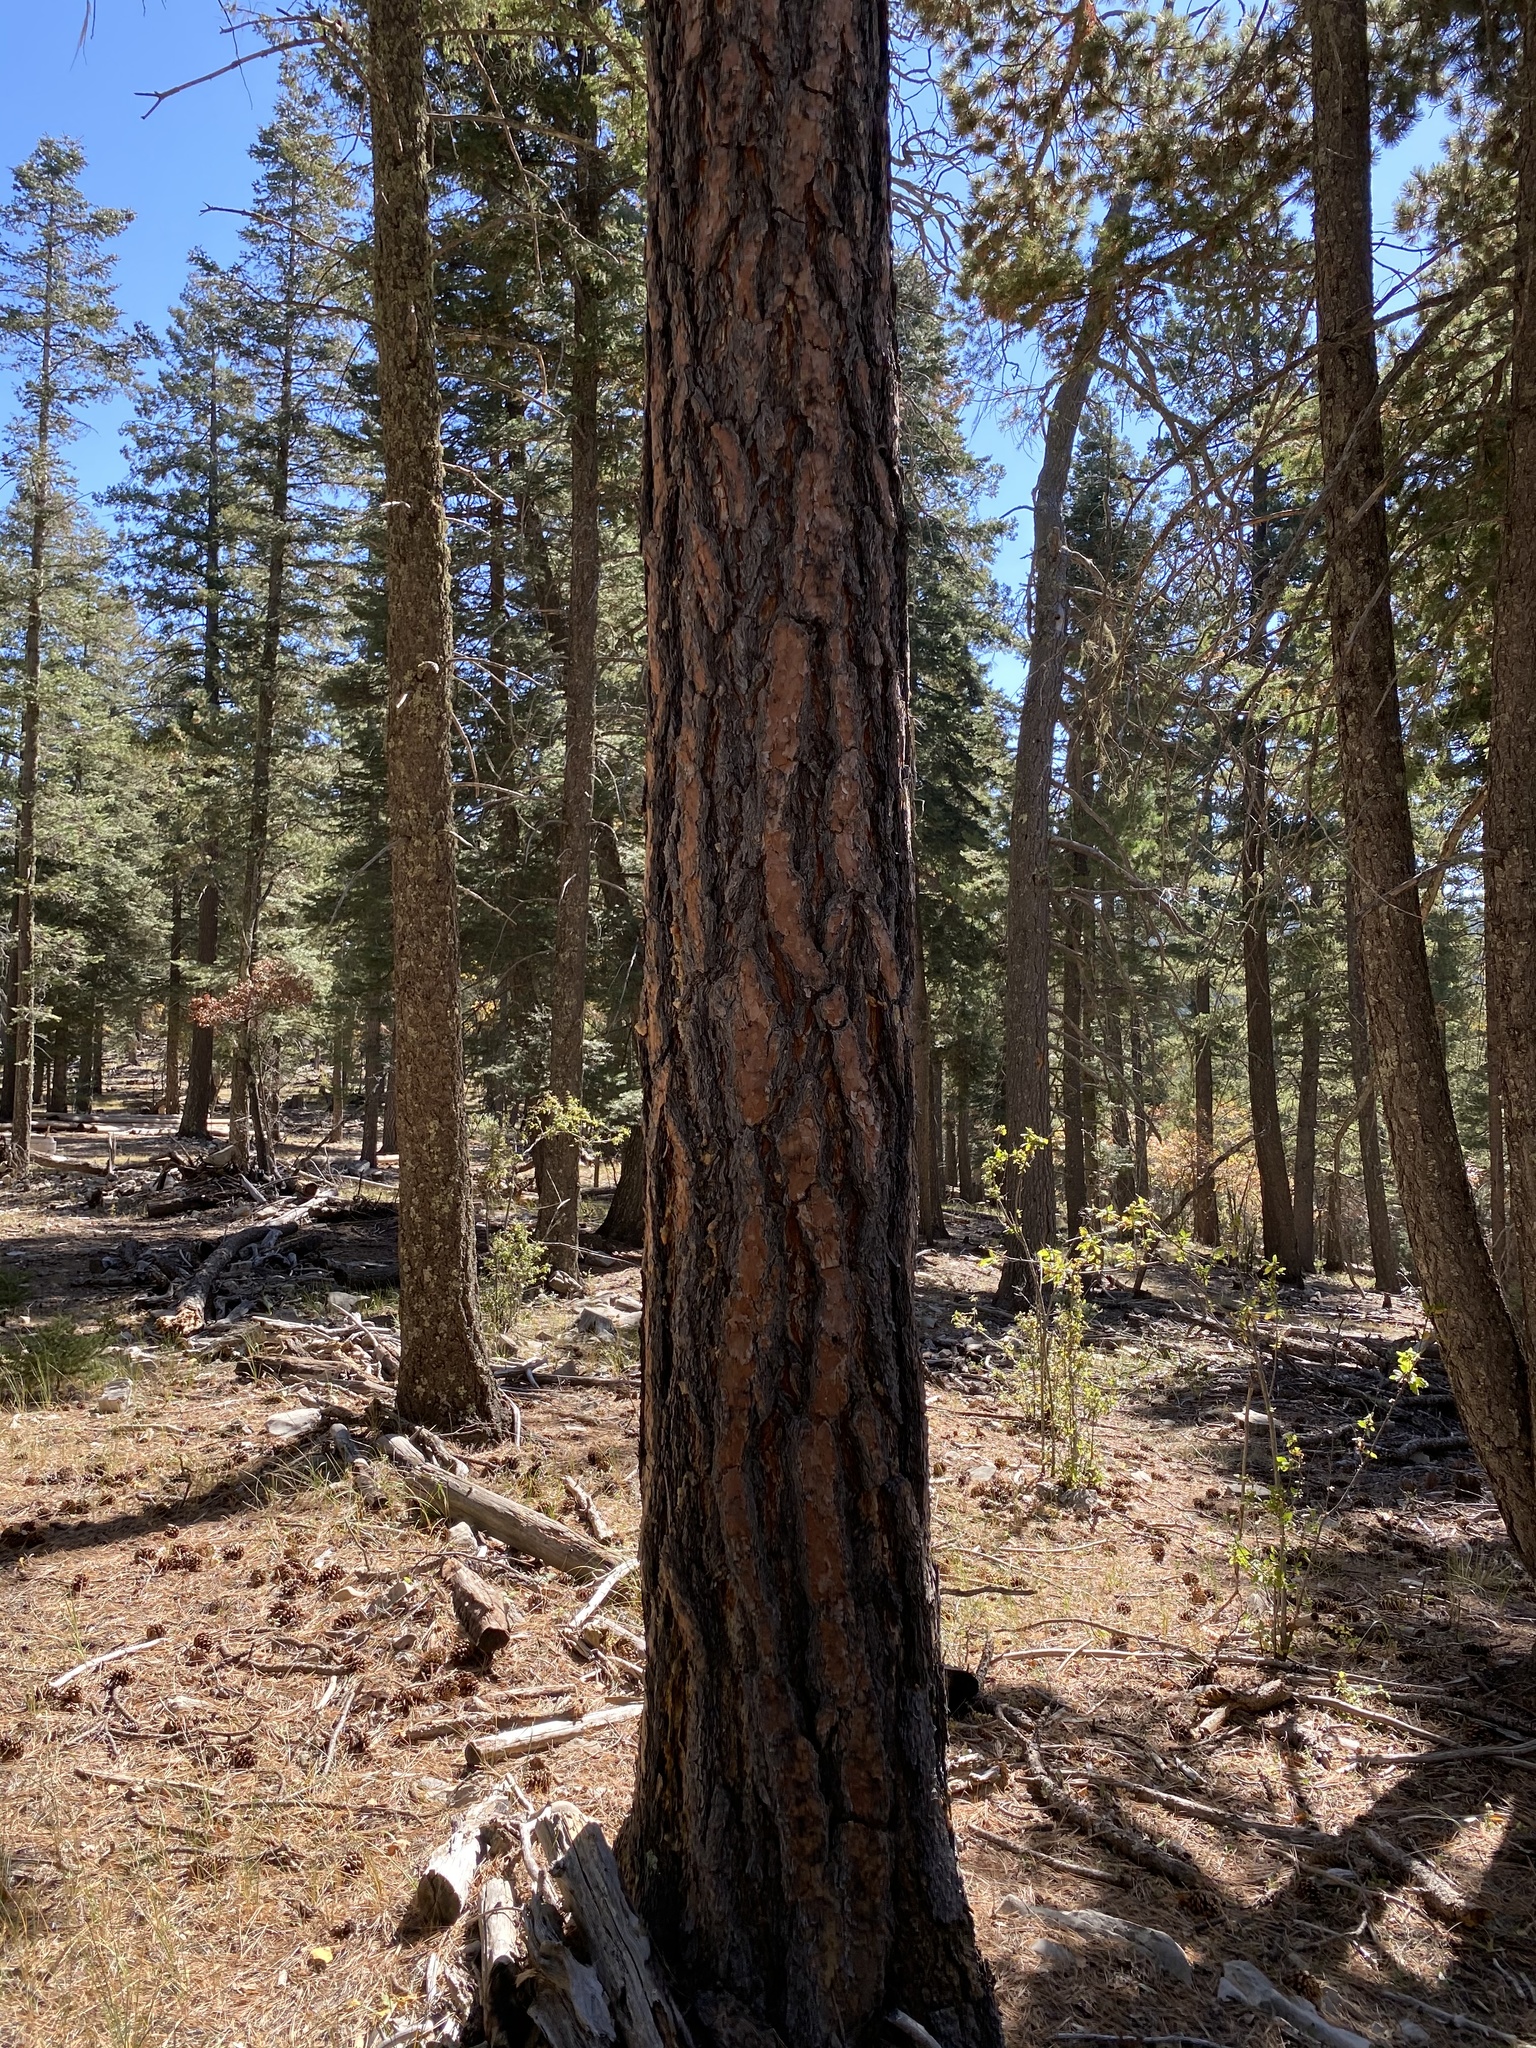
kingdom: Plantae
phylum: Tracheophyta
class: Pinopsida
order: Pinales
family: Pinaceae
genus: Pinus
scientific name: Pinus ponderosa
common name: Western yellow-pine
